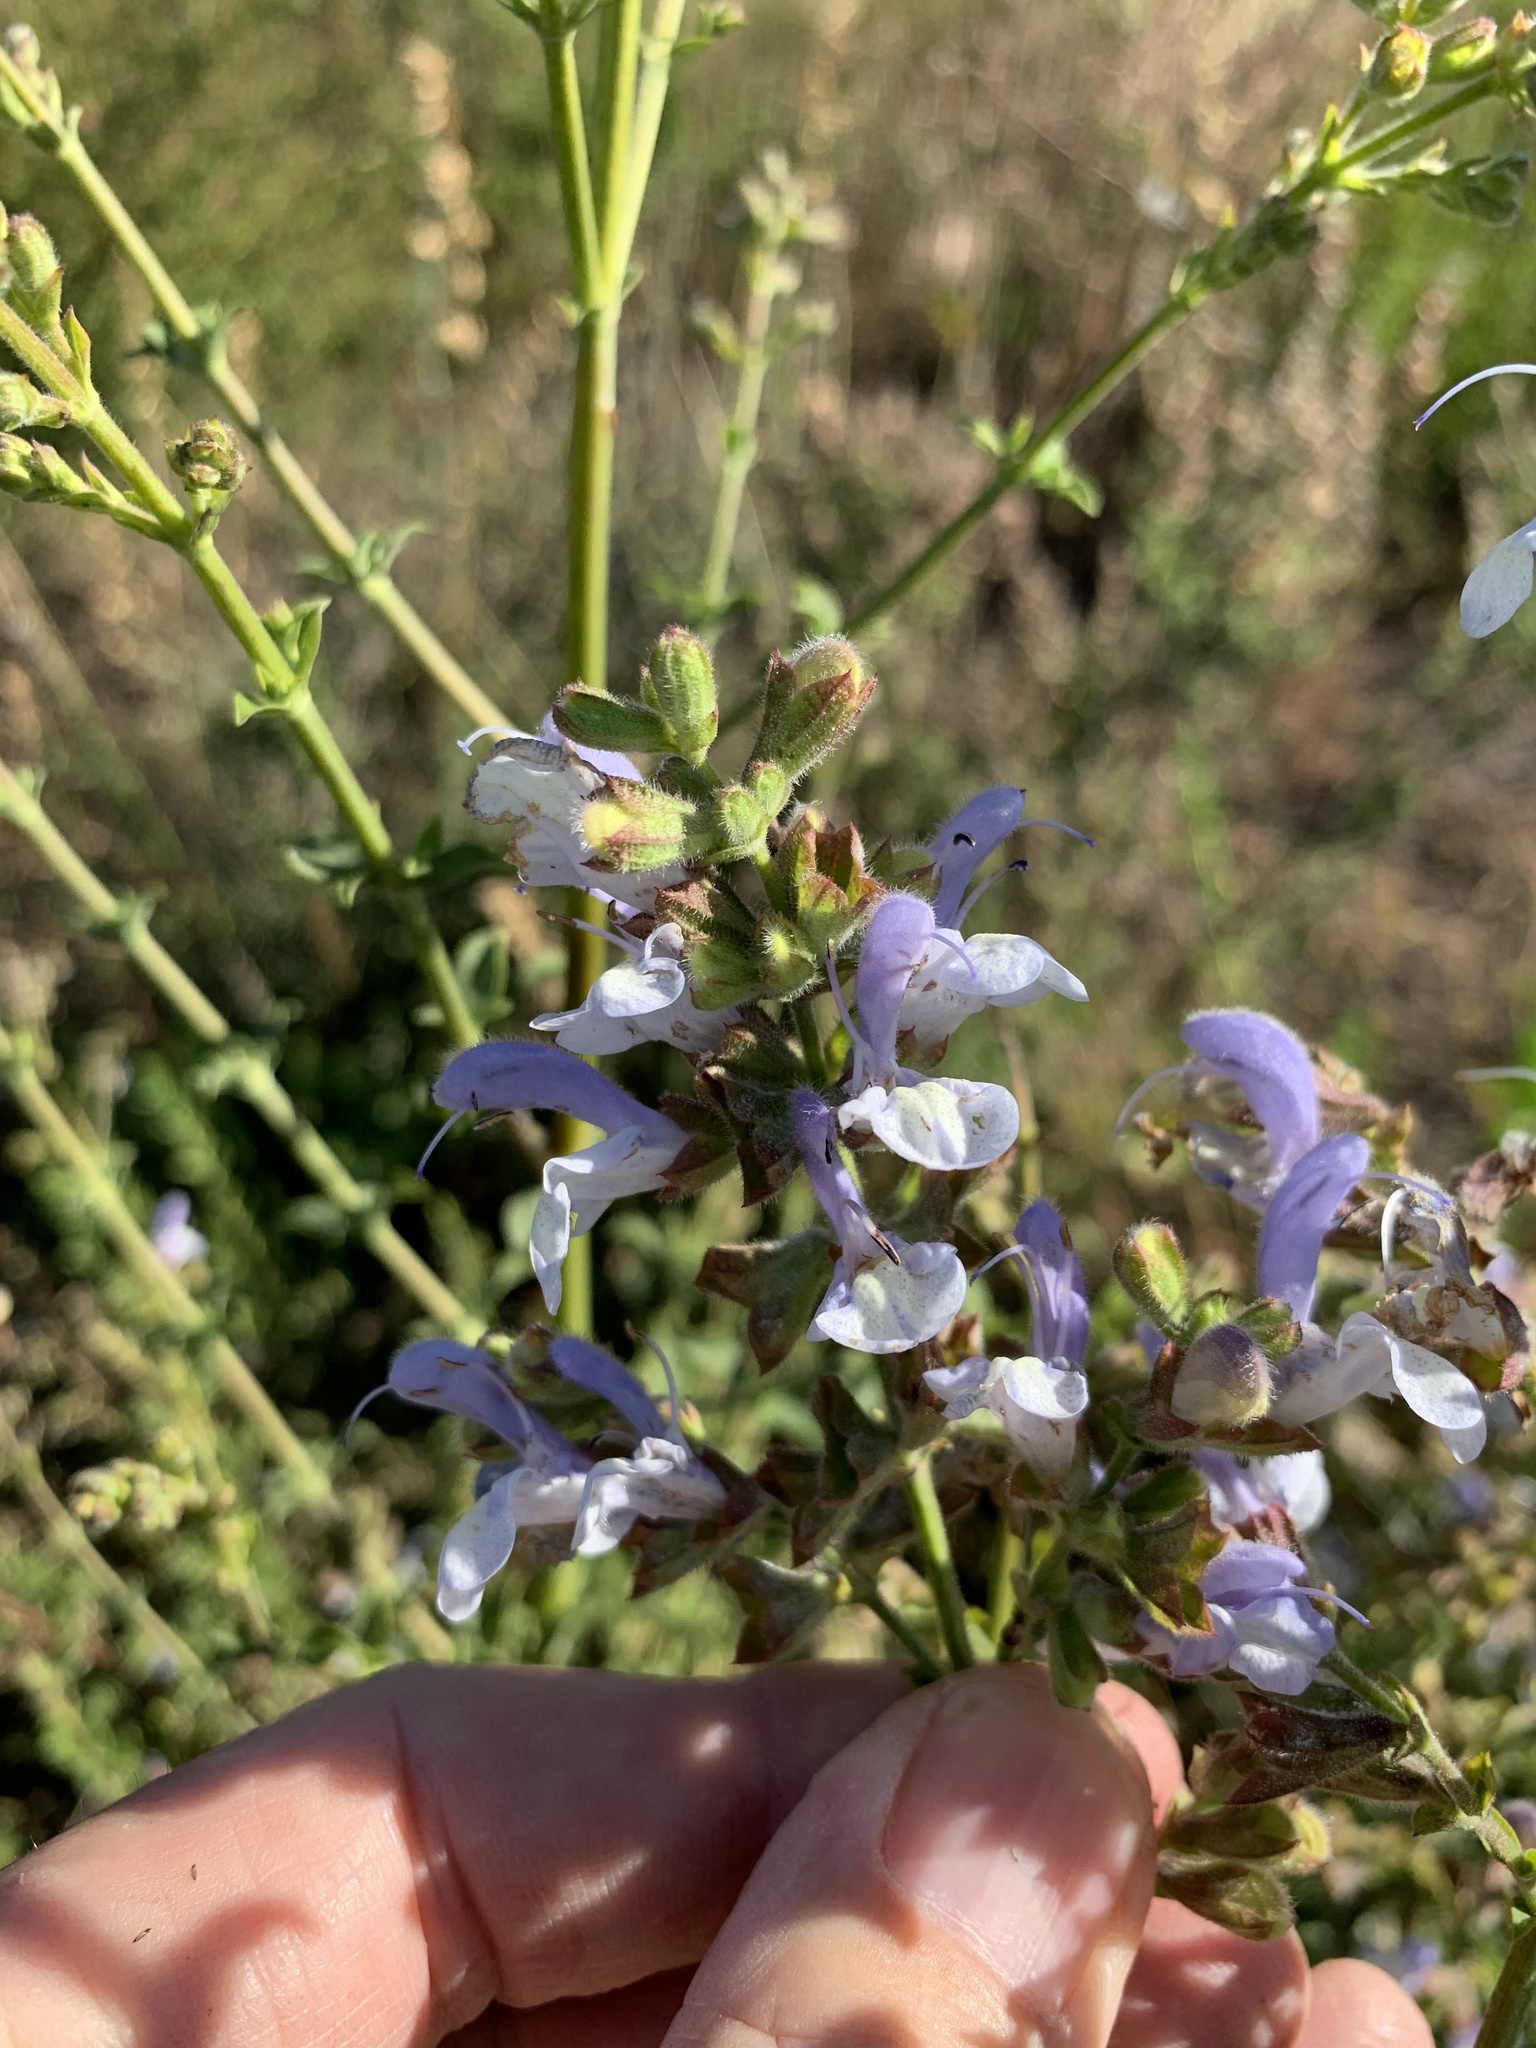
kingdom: Plantae
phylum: Tracheophyta
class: Magnoliopsida
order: Lamiales
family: Lamiaceae
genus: Salvia
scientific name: Salvia africana
